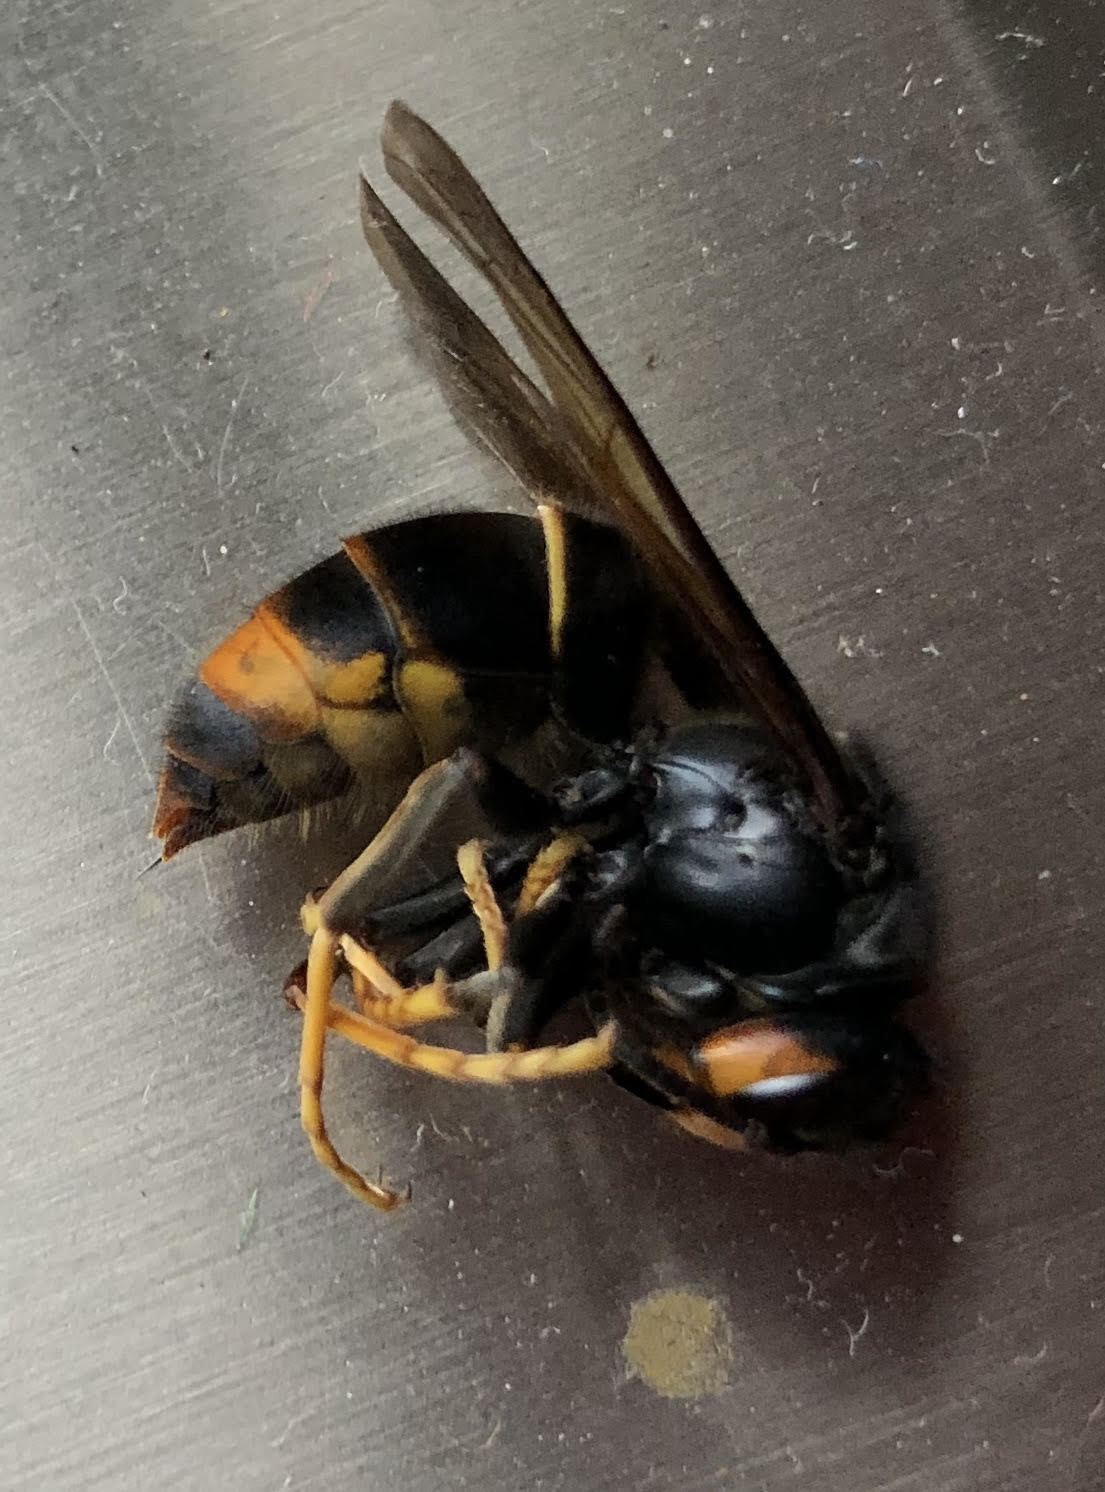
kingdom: Animalia
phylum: Arthropoda
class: Insecta
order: Hymenoptera
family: Vespidae
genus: Vespa
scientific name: Vespa velutina
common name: Asian hornet
